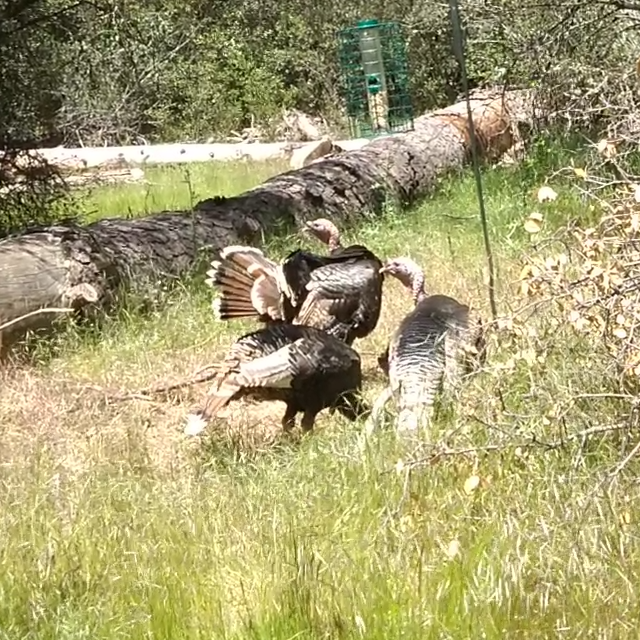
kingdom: Animalia
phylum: Chordata
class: Aves
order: Galliformes
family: Phasianidae
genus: Meleagris
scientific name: Meleagris gallopavo
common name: Wild turkey
